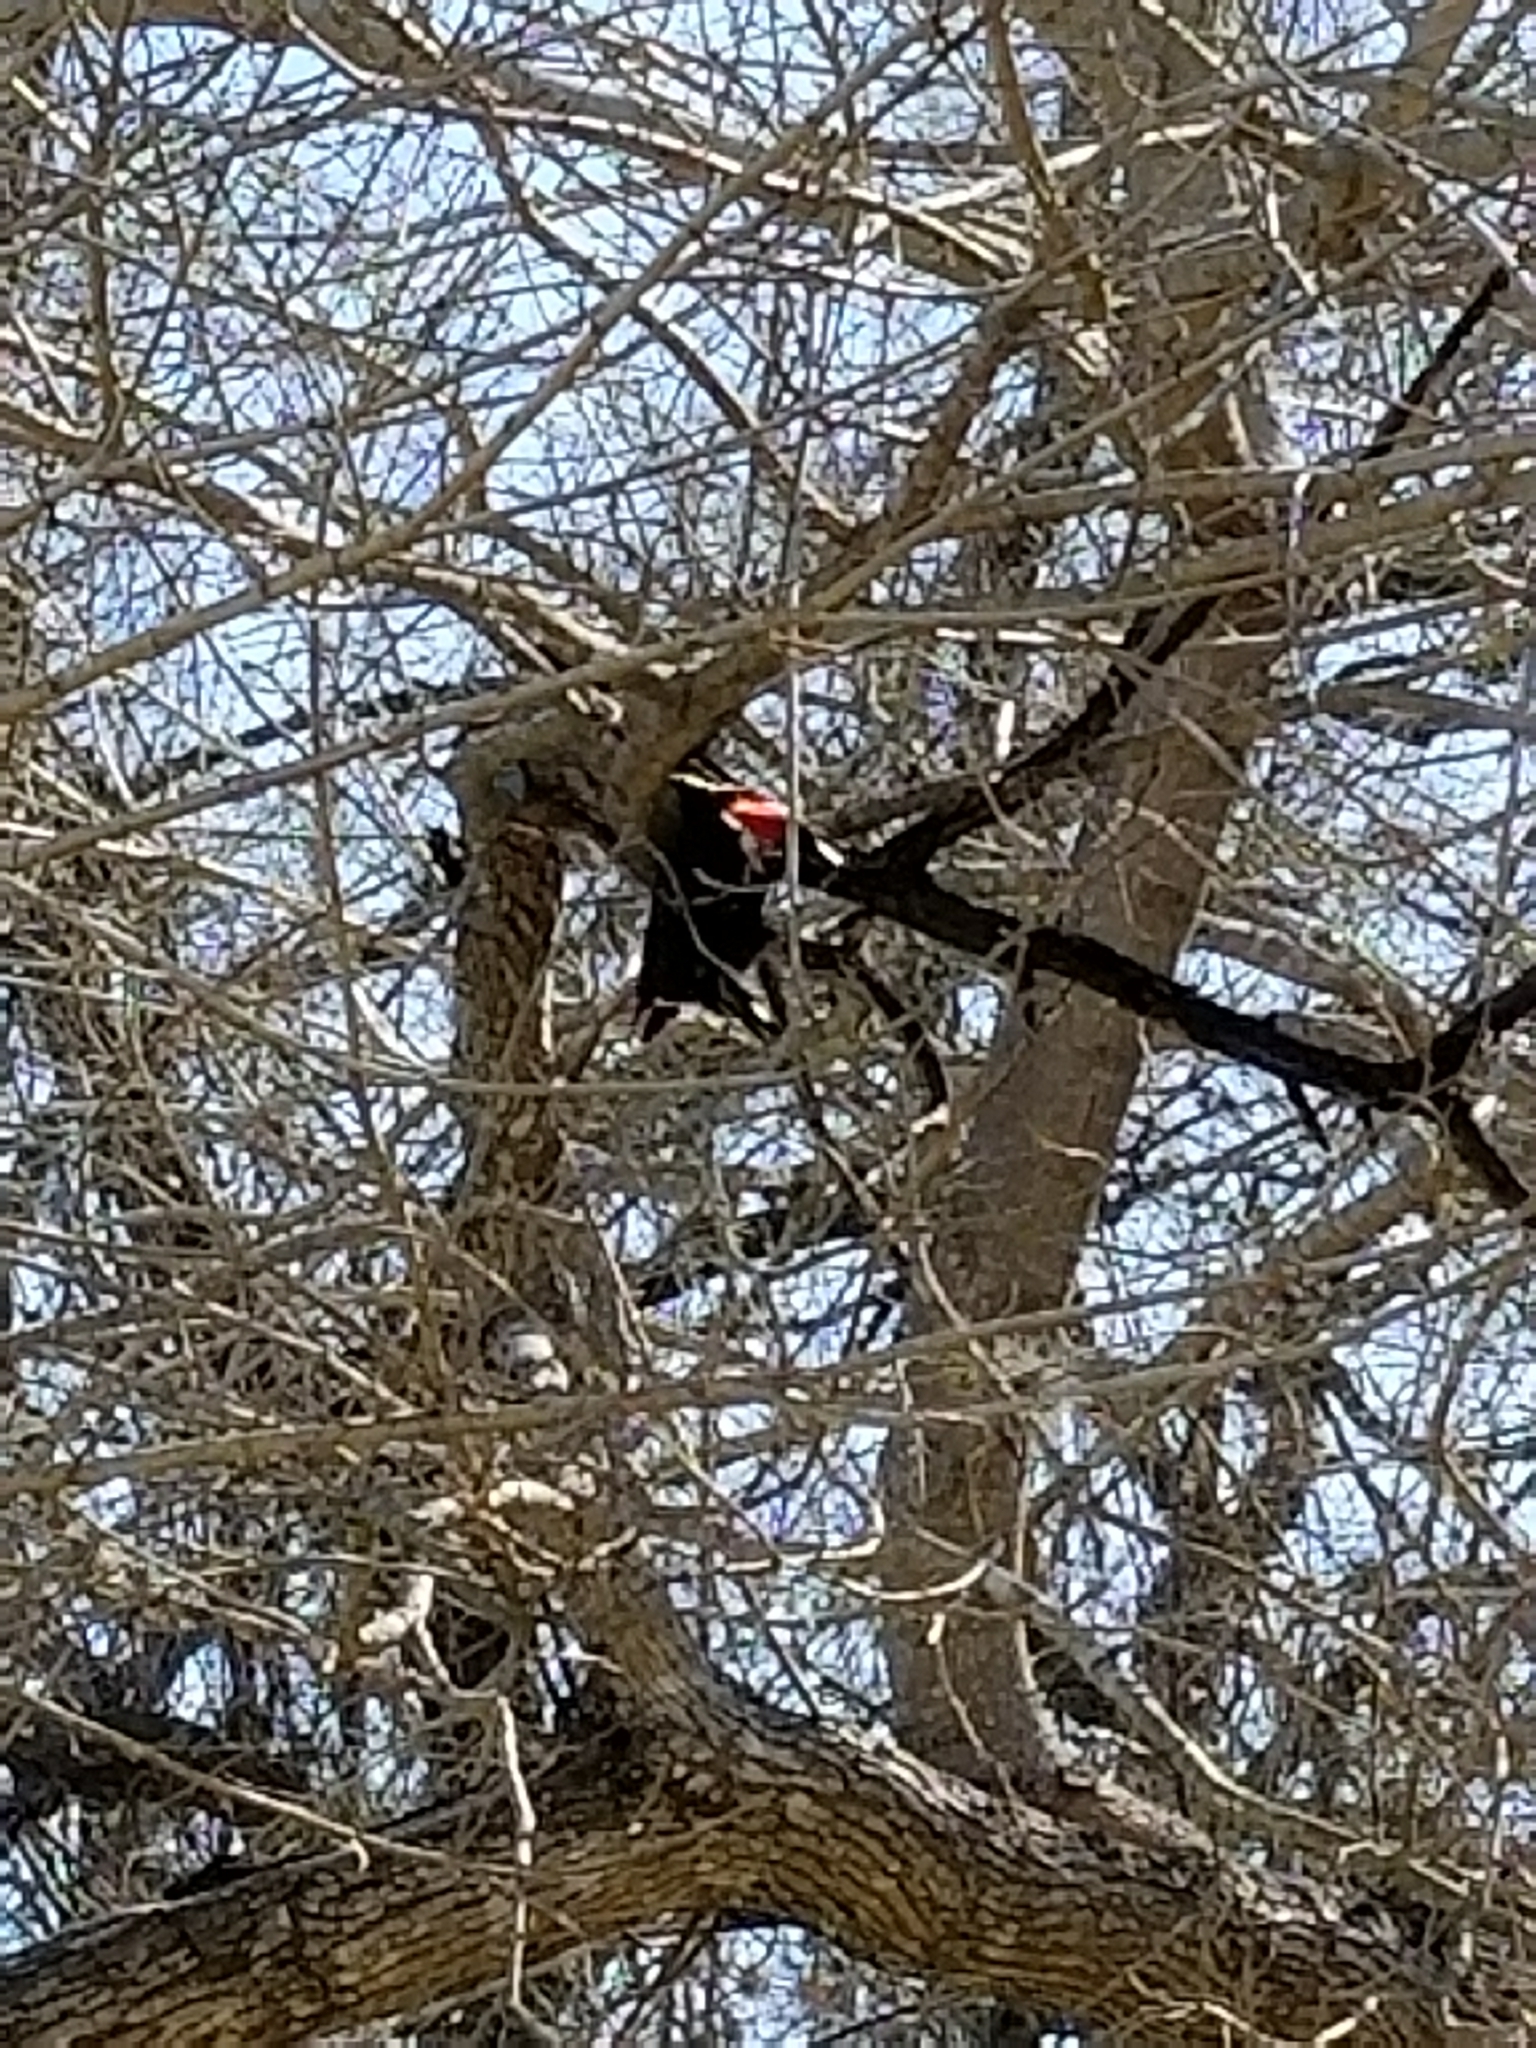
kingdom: Animalia
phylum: Chordata
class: Aves
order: Piciformes
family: Picidae
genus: Dryocopus
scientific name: Dryocopus pileatus
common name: Pileated woodpecker
